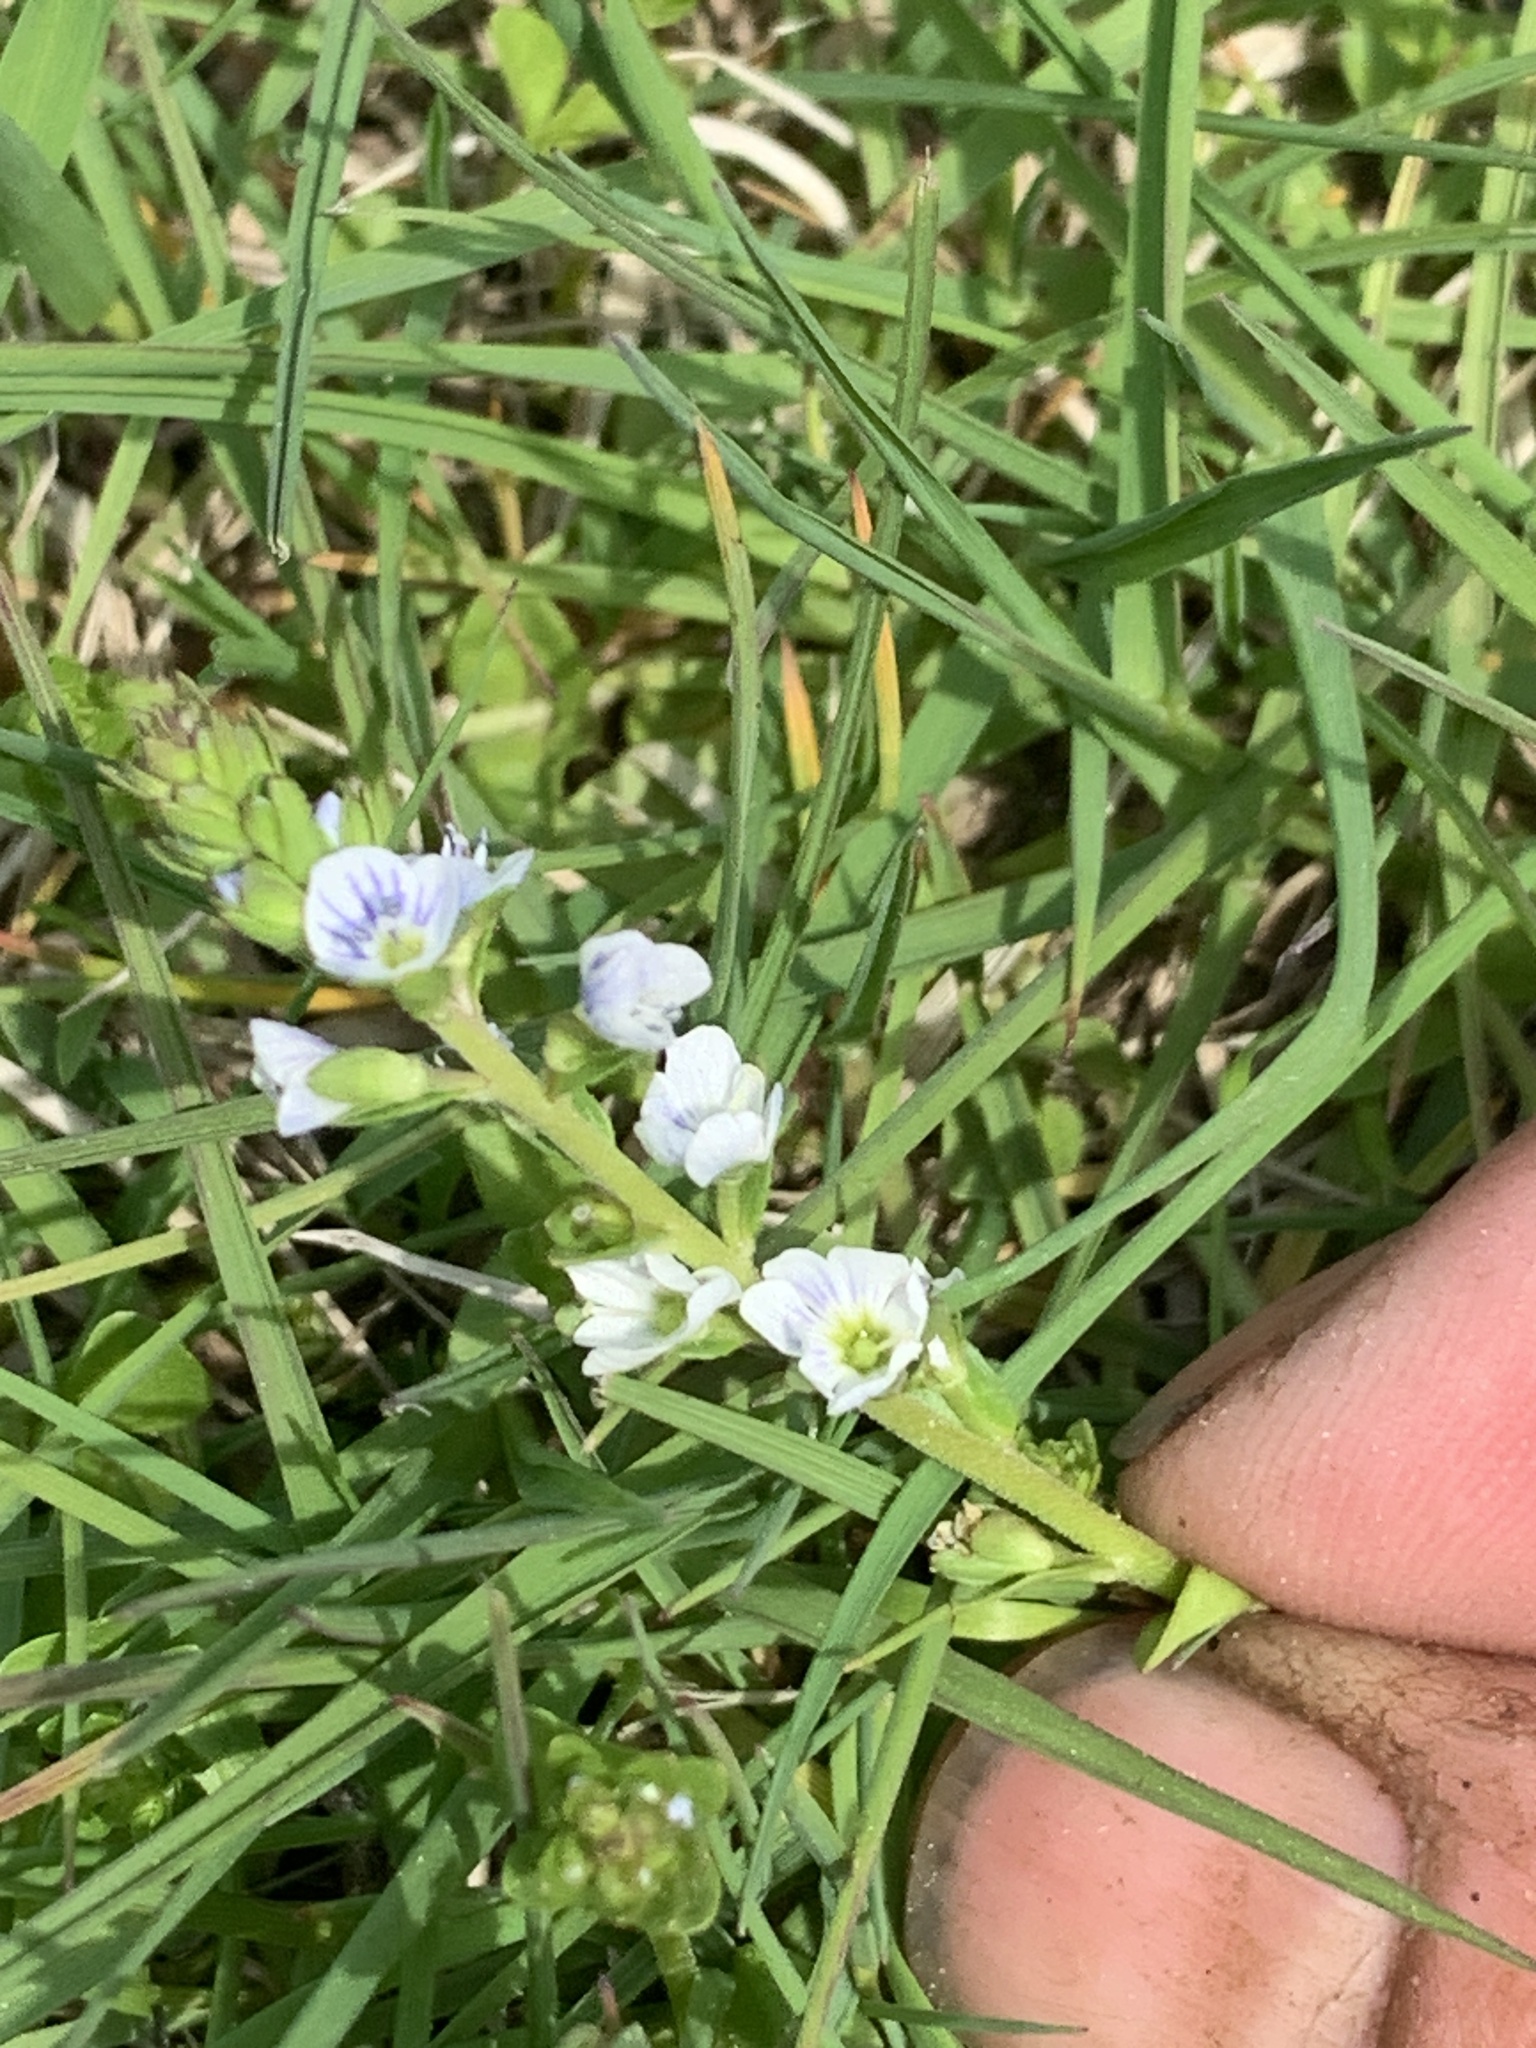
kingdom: Plantae
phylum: Tracheophyta
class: Magnoliopsida
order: Lamiales
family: Plantaginaceae
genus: Veronica
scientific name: Veronica serpyllifolia
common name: Thyme-leaved speedwell
